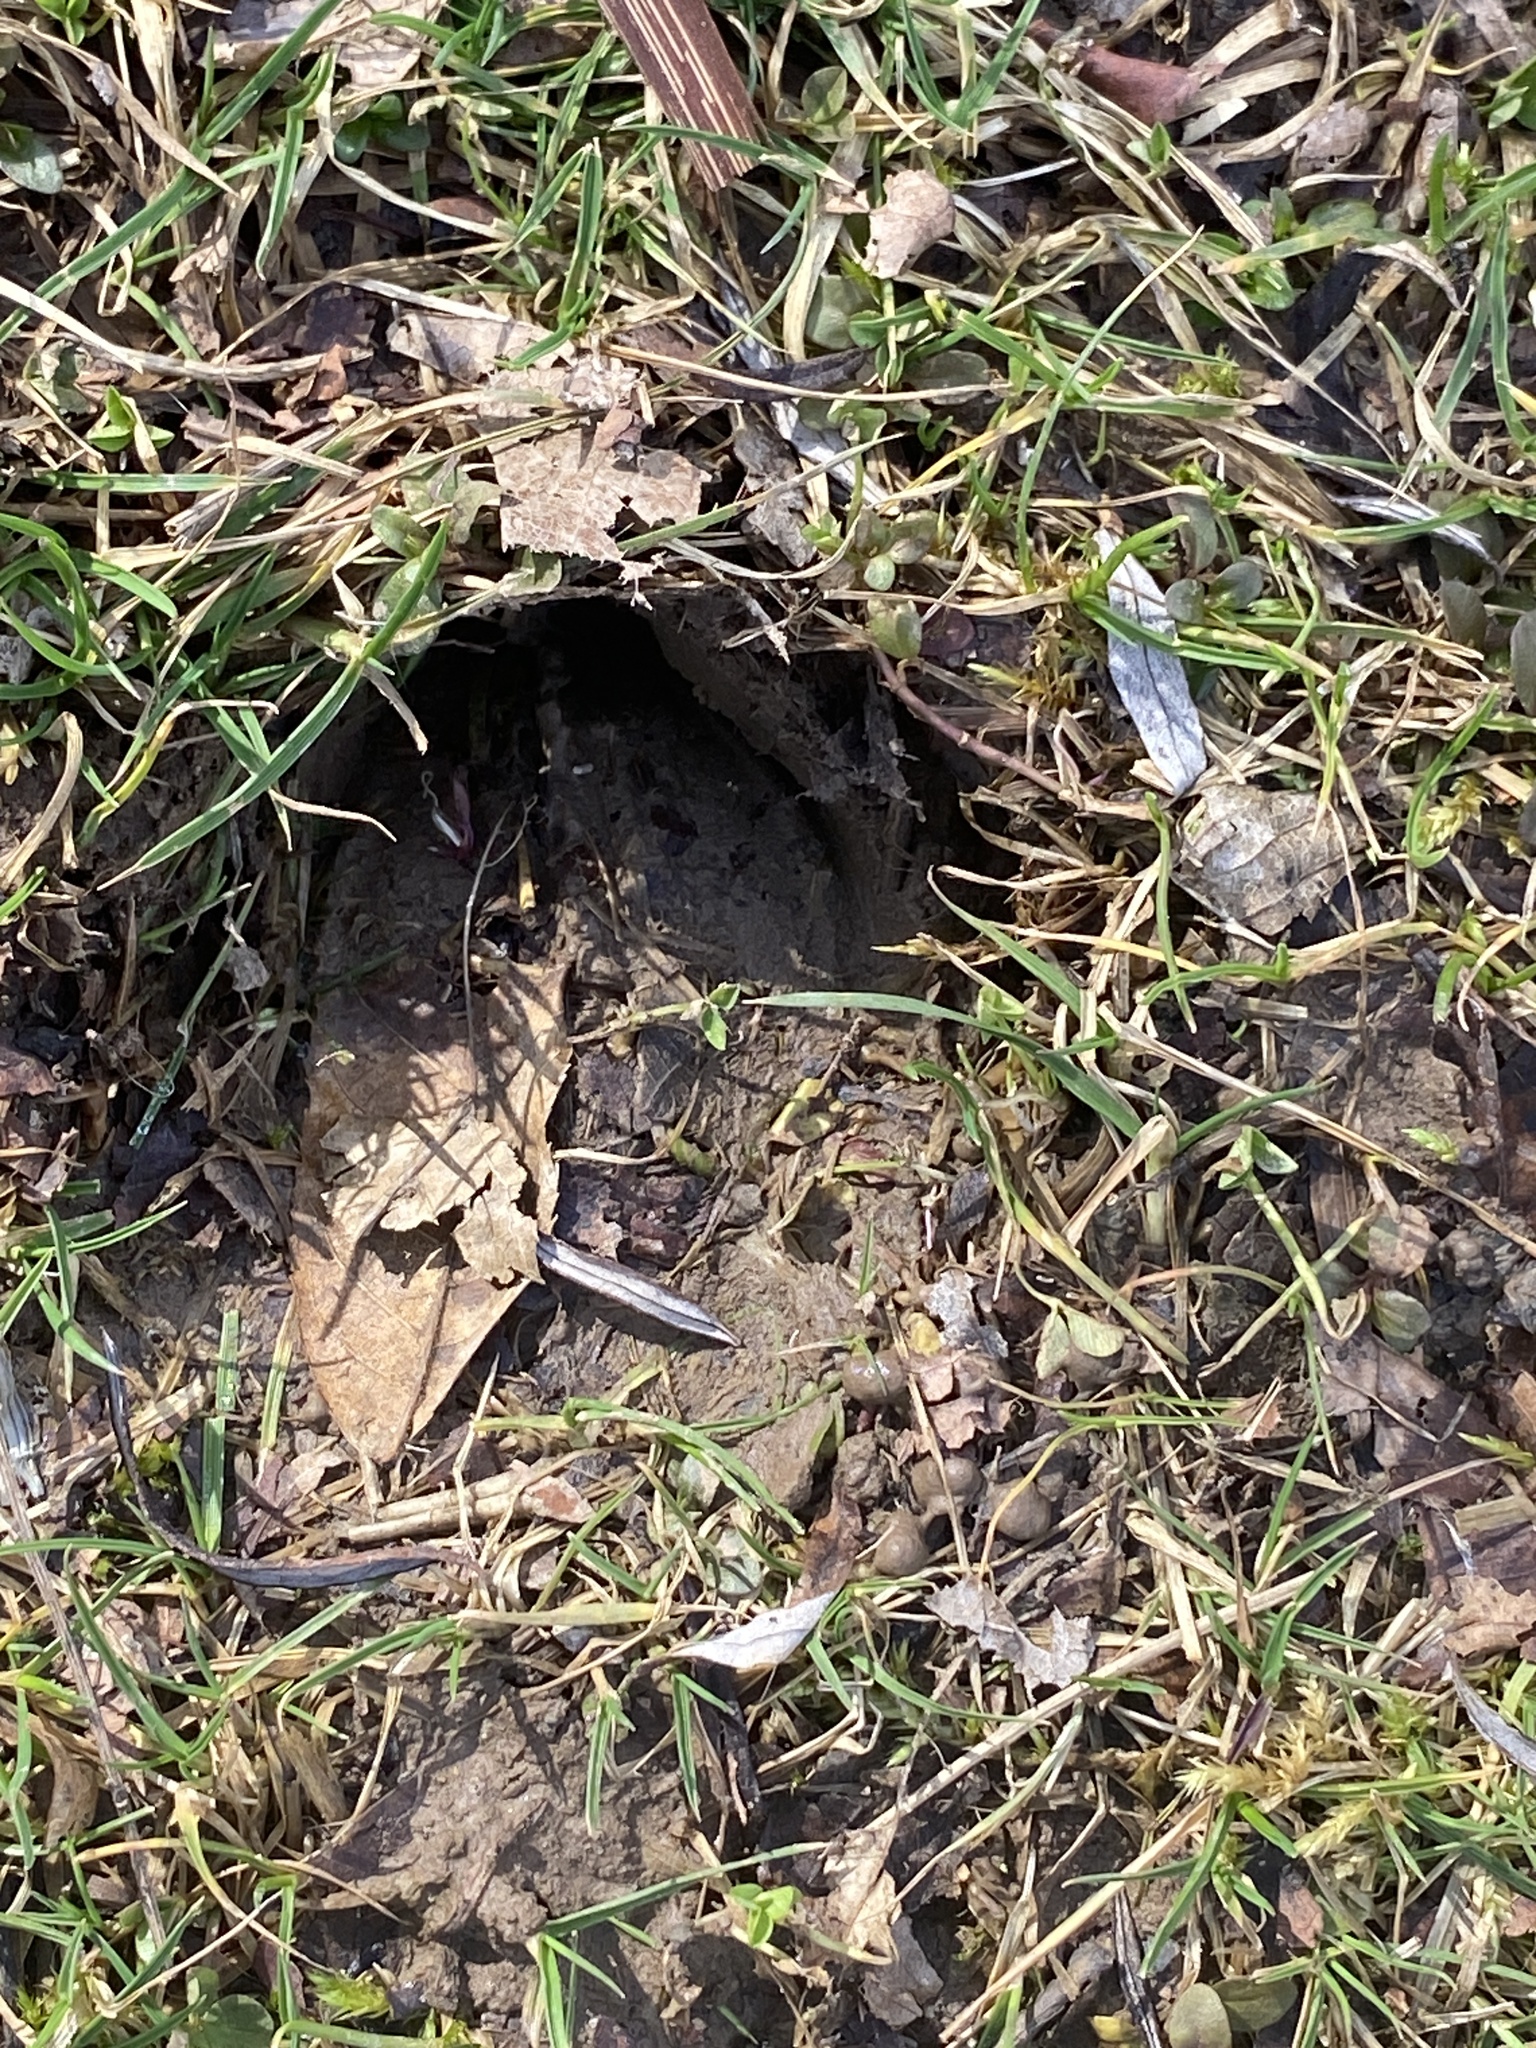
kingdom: Animalia
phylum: Chordata
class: Mammalia
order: Artiodactyla
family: Cervidae
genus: Odocoileus
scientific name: Odocoileus virginianus
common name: White-tailed deer
